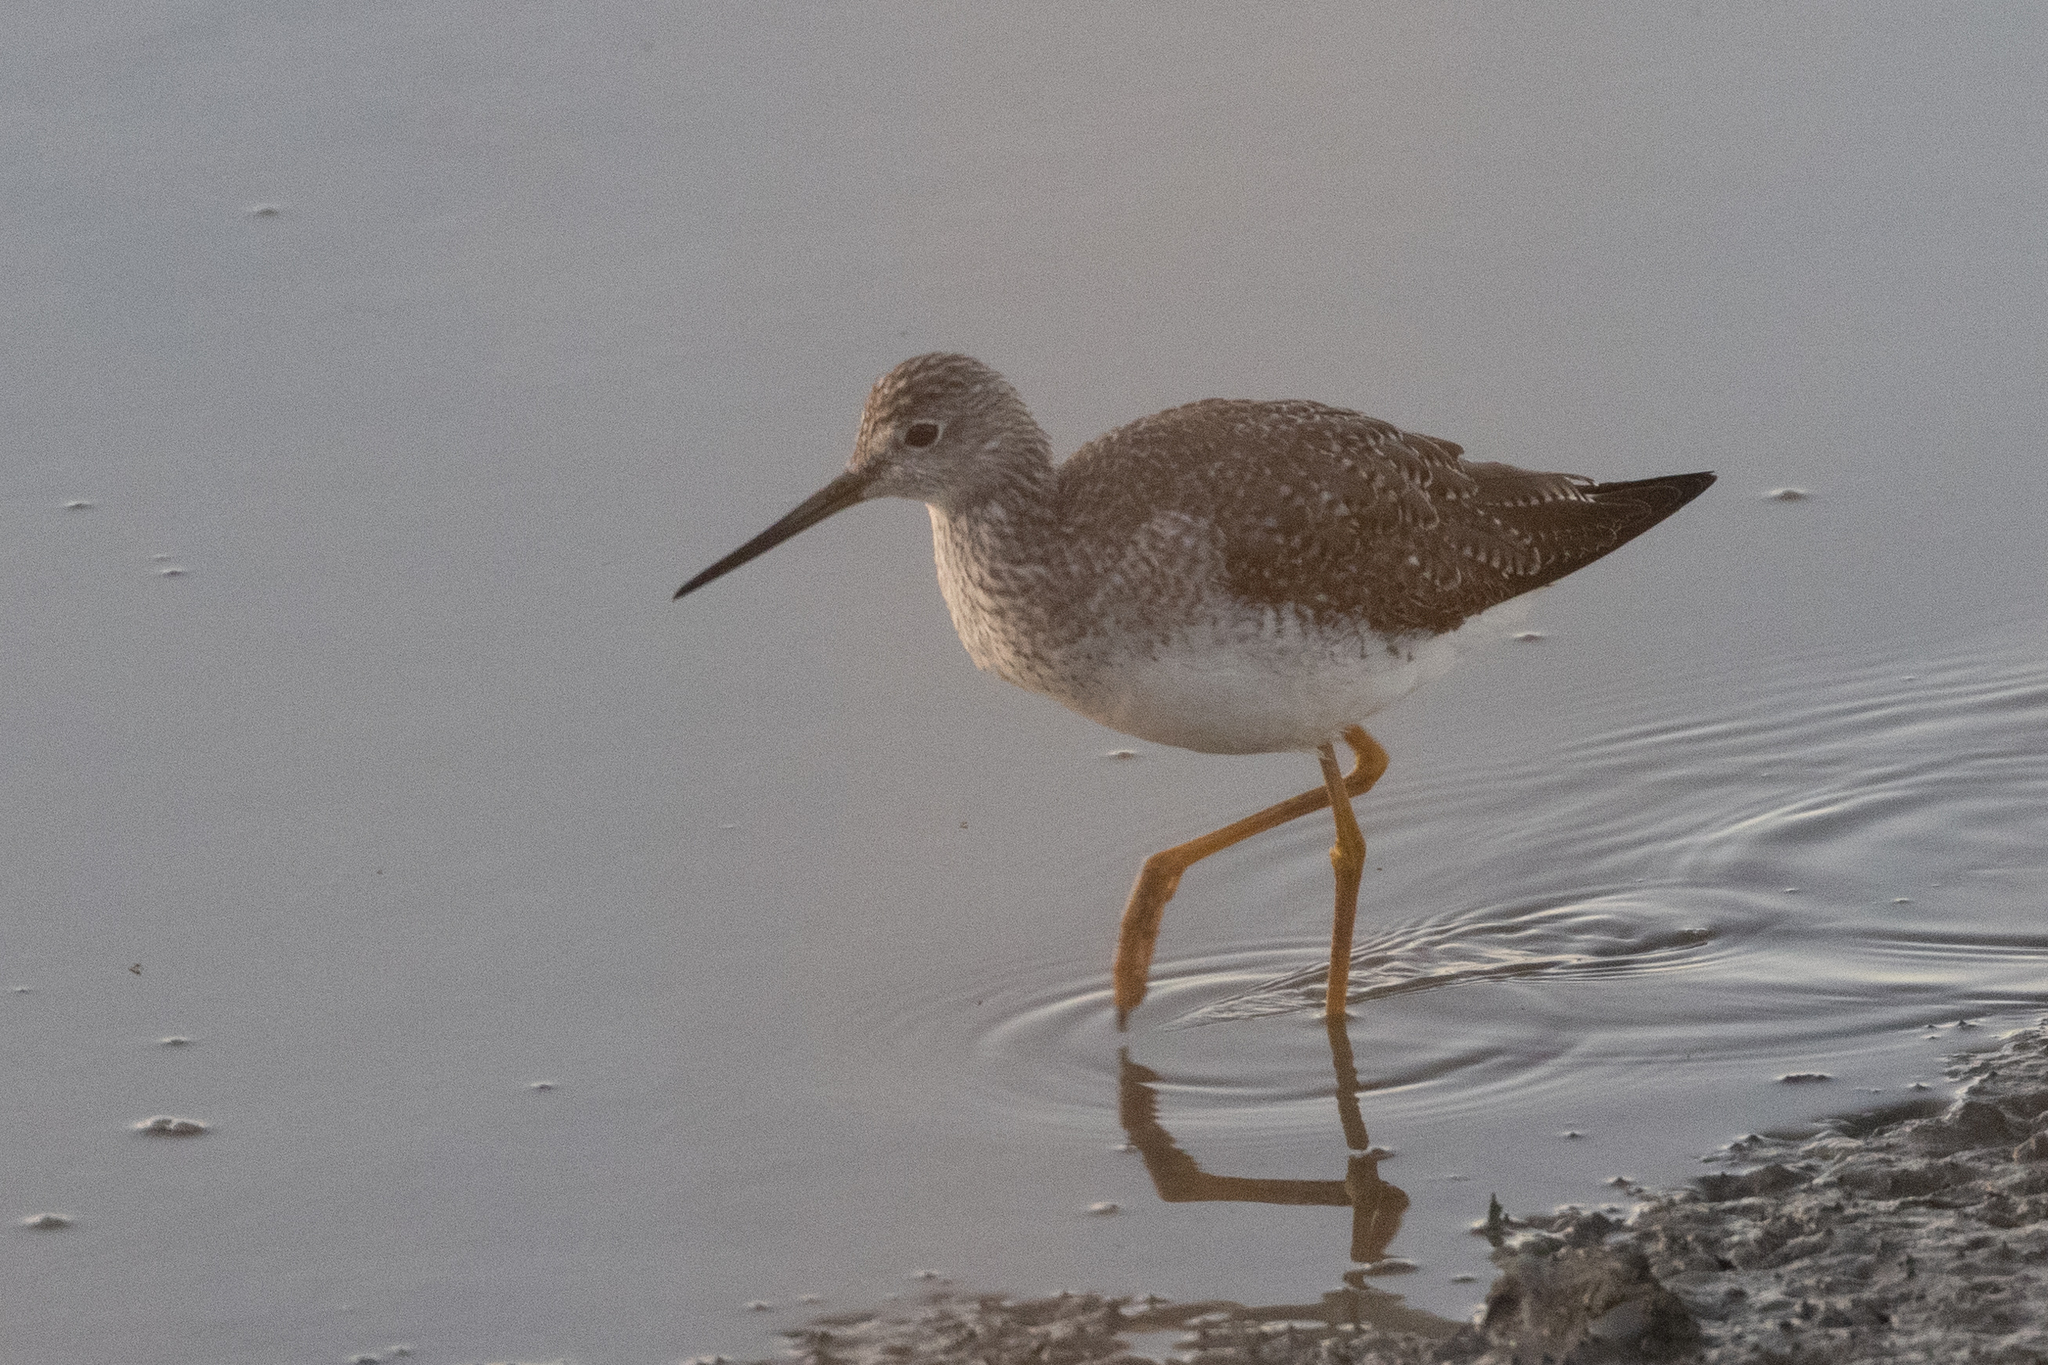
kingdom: Animalia
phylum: Chordata
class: Aves
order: Charadriiformes
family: Scolopacidae
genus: Tringa
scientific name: Tringa melanoleuca
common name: Greater yellowlegs
